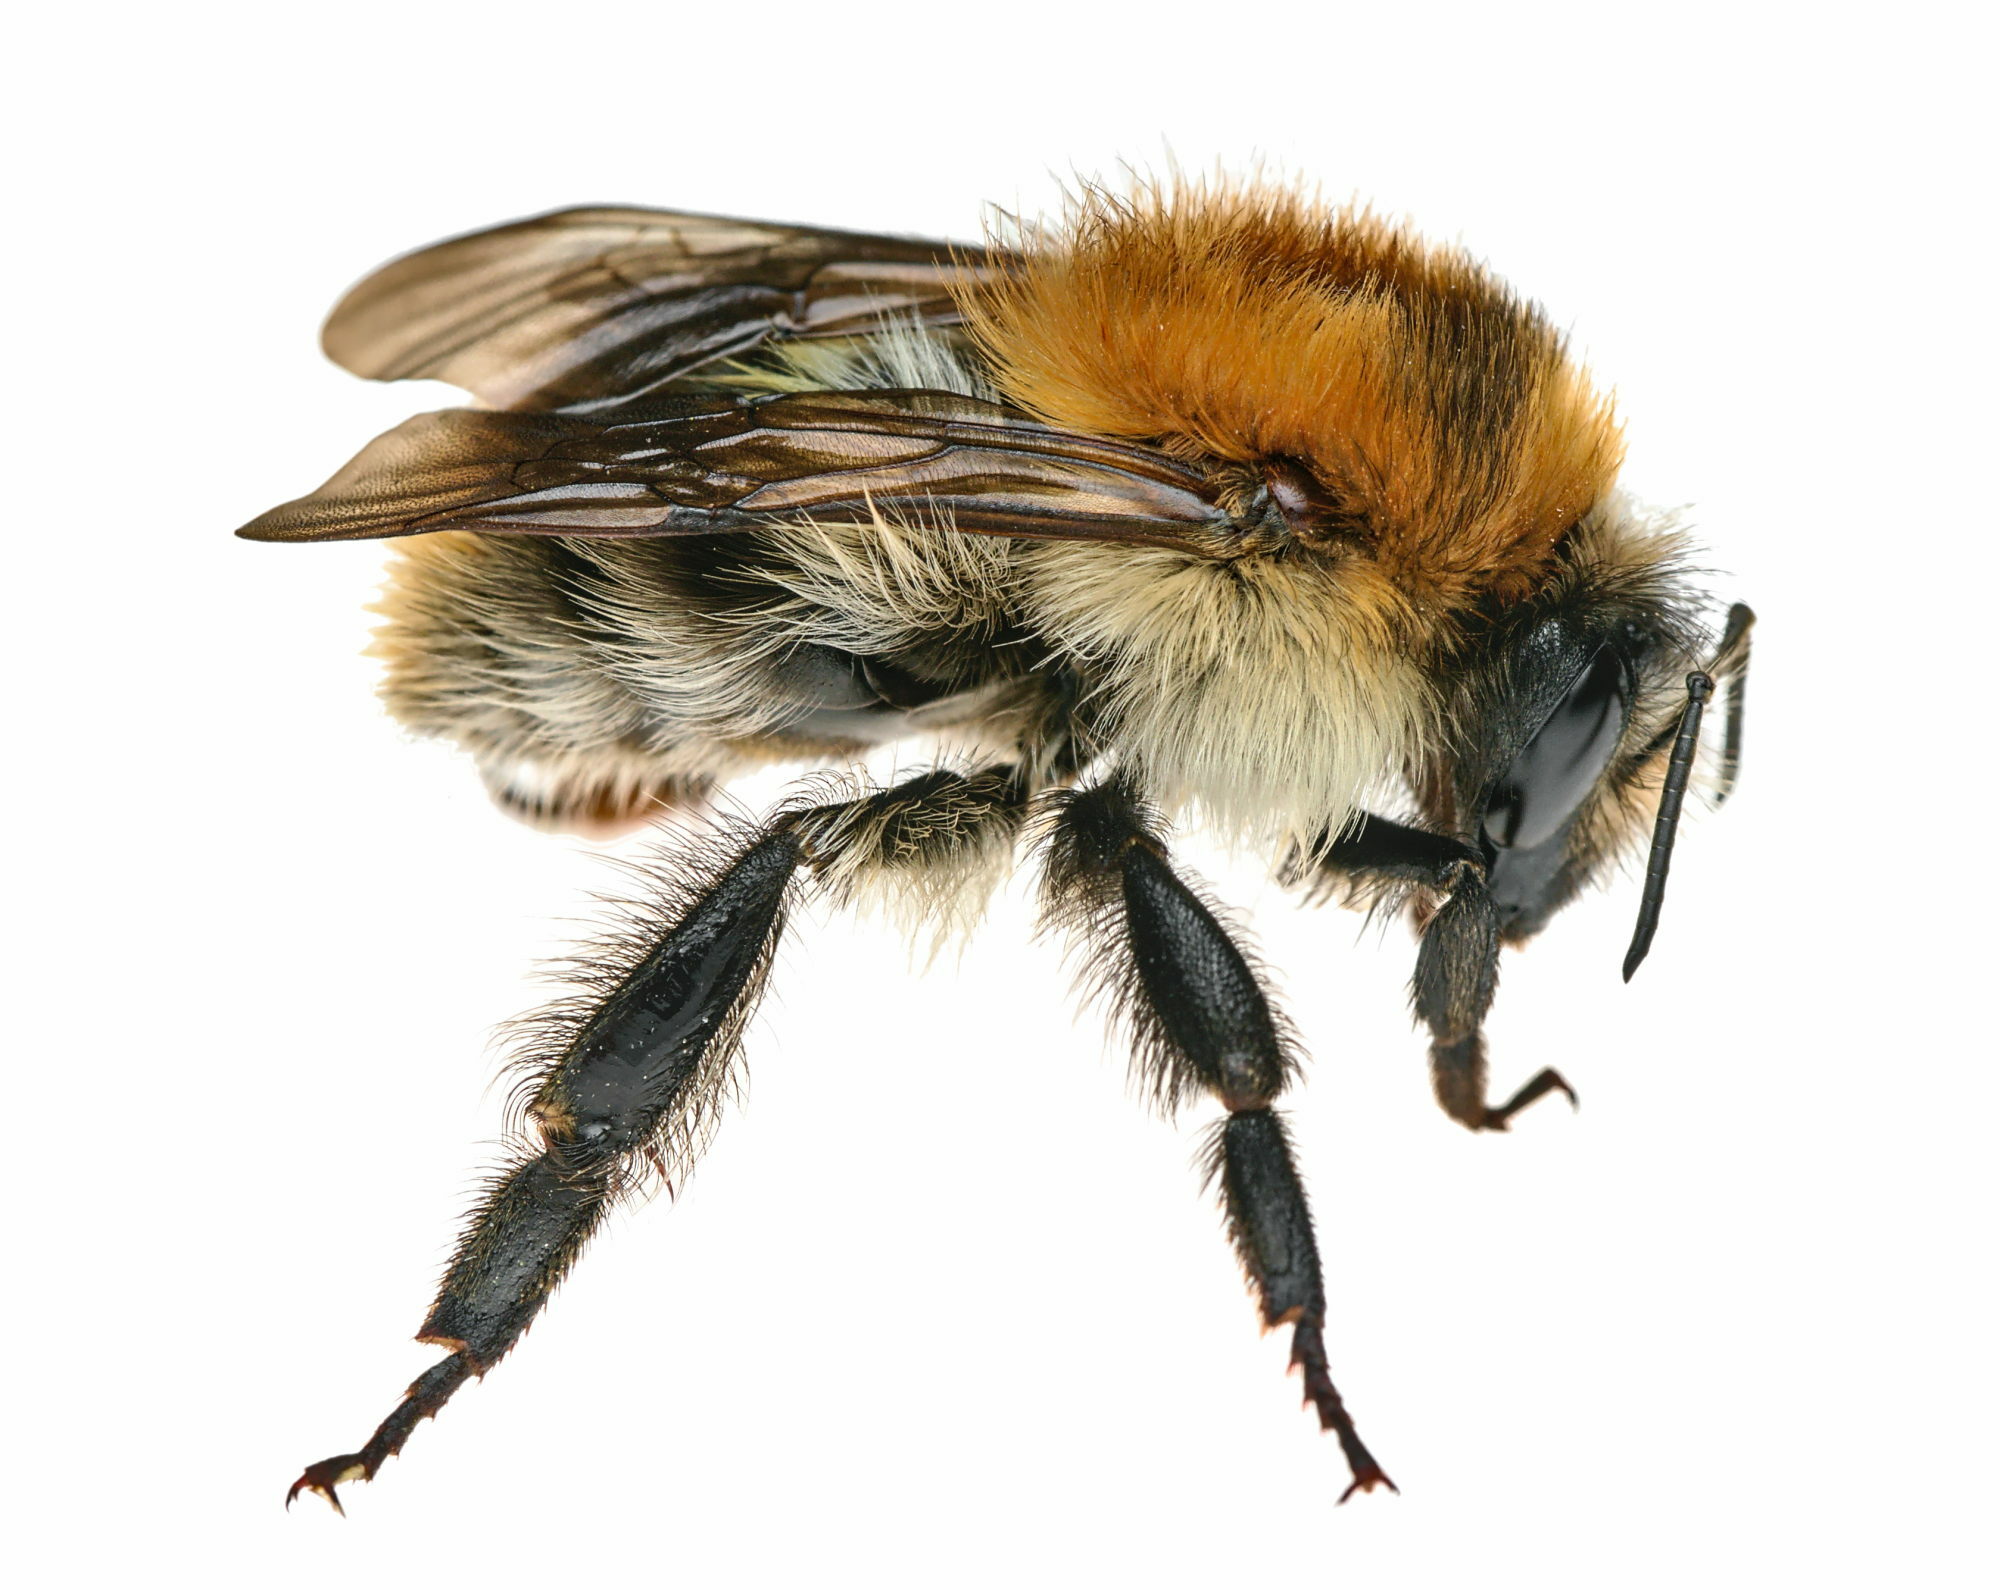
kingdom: Animalia
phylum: Arthropoda
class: Insecta
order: Hymenoptera
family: Apidae
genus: Bombus
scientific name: Bombus pascuorum
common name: Common carder bee
